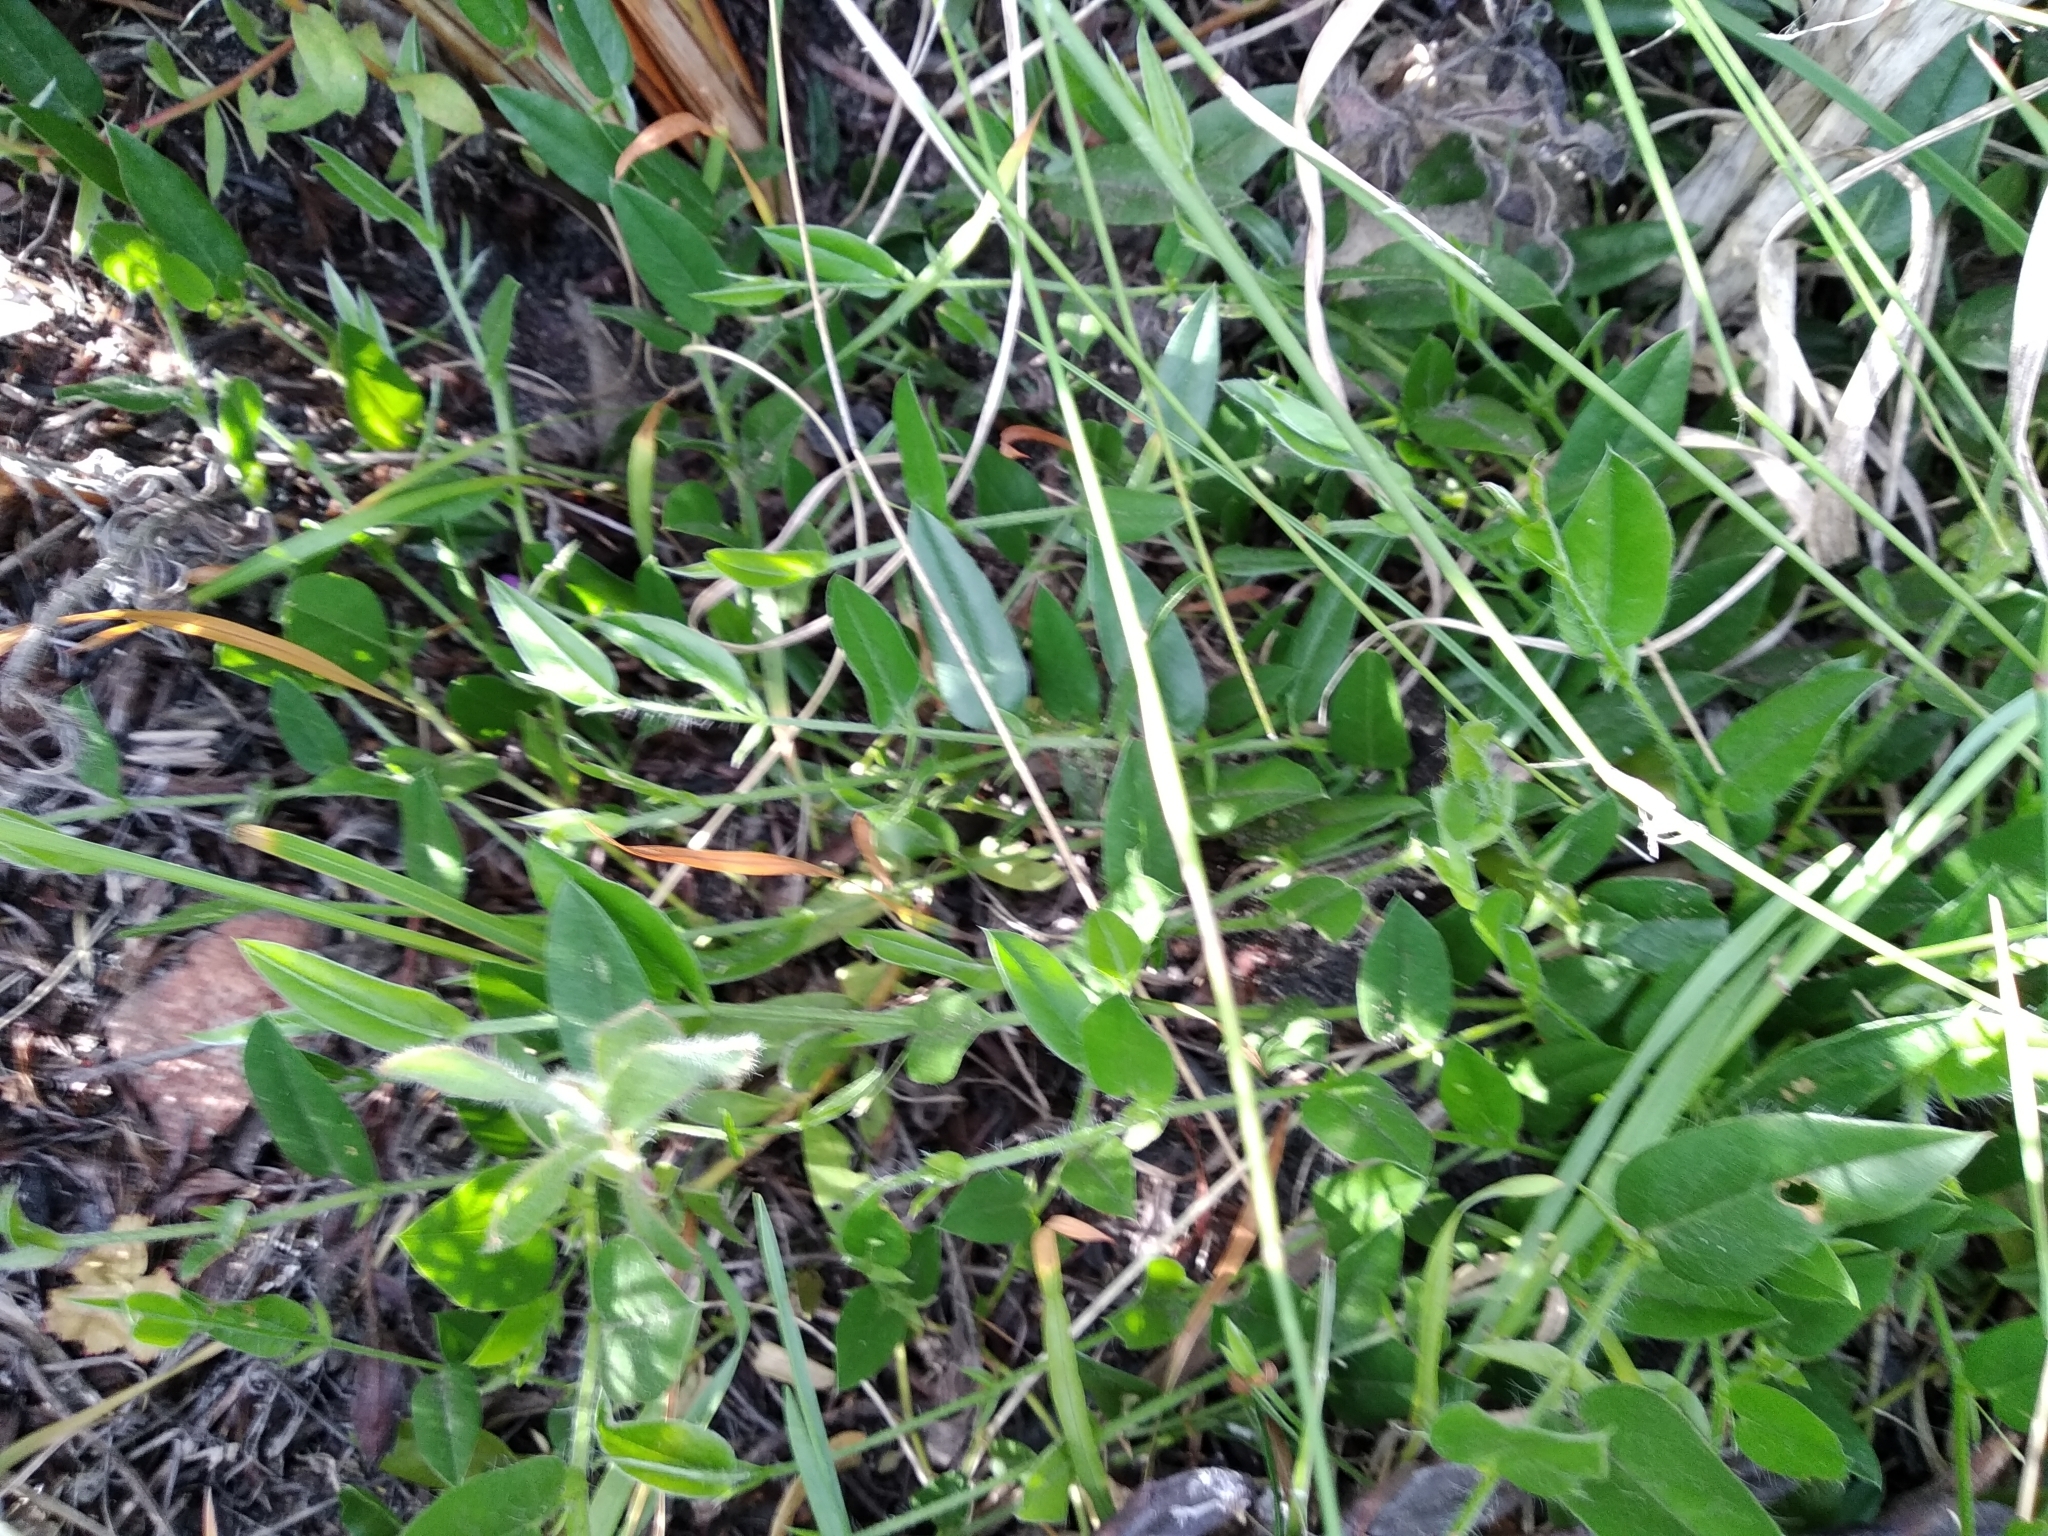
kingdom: Plantae
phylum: Tracheophyta
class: Magnoliopsida
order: Fabales
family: Fabaceae
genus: Psoralea
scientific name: Psoralea monophylla
